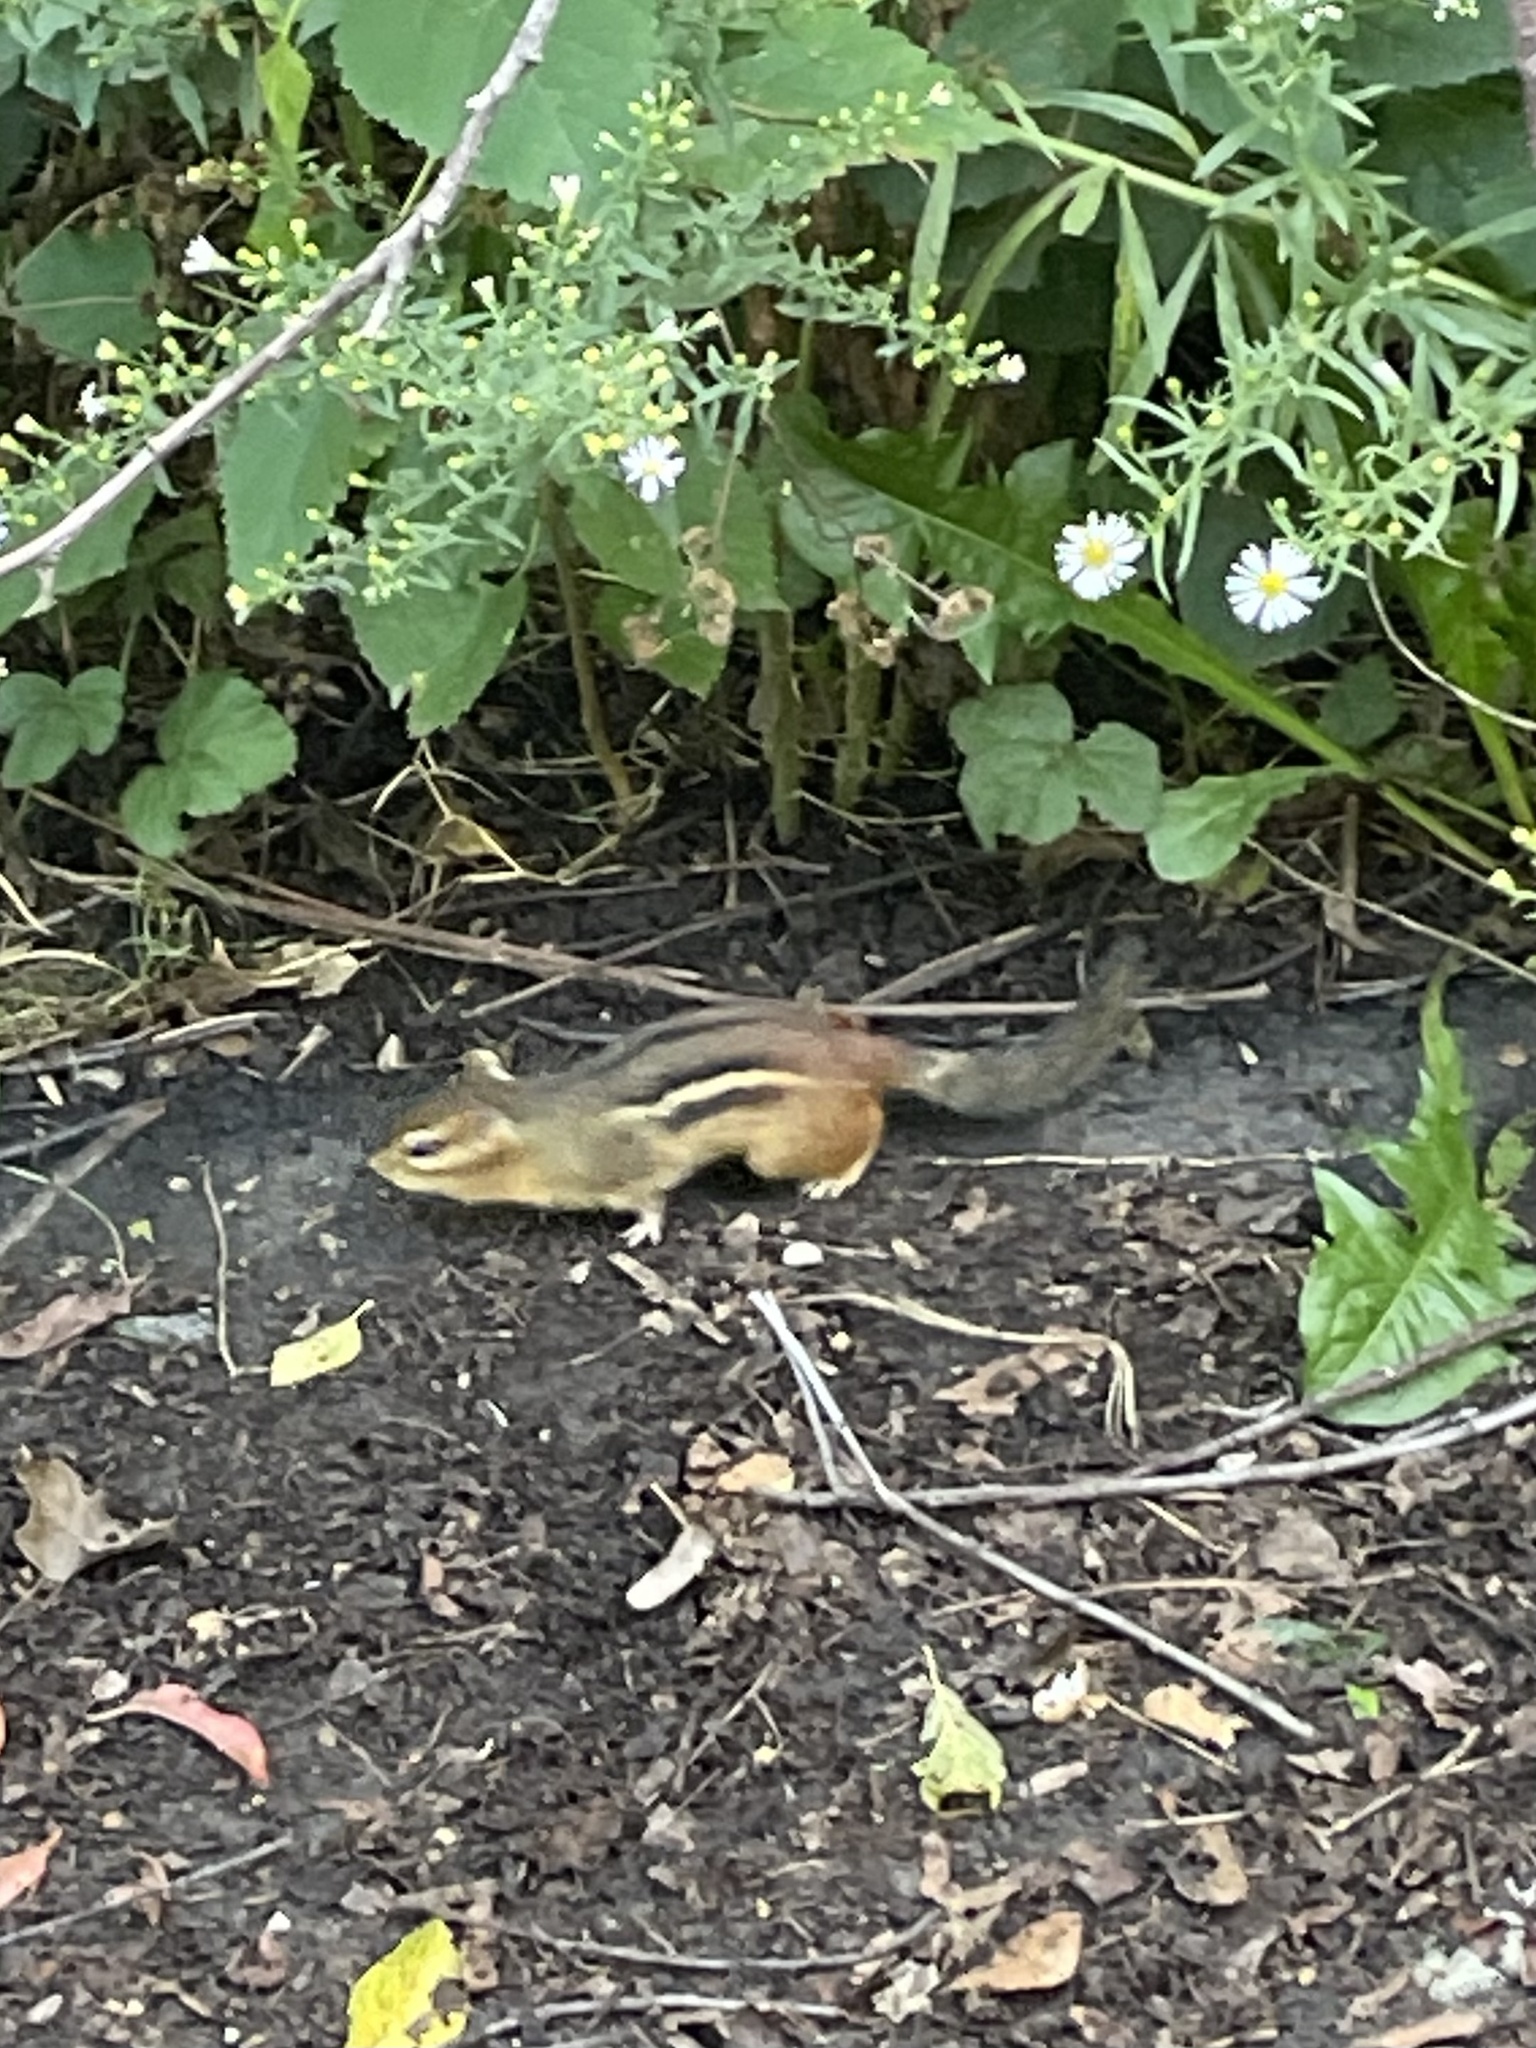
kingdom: Animalia
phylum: Chordata
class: Mammalia
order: Rodentia
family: Sciuridae
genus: Tamias
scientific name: Tamias striatus
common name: Eastern chipmunk
